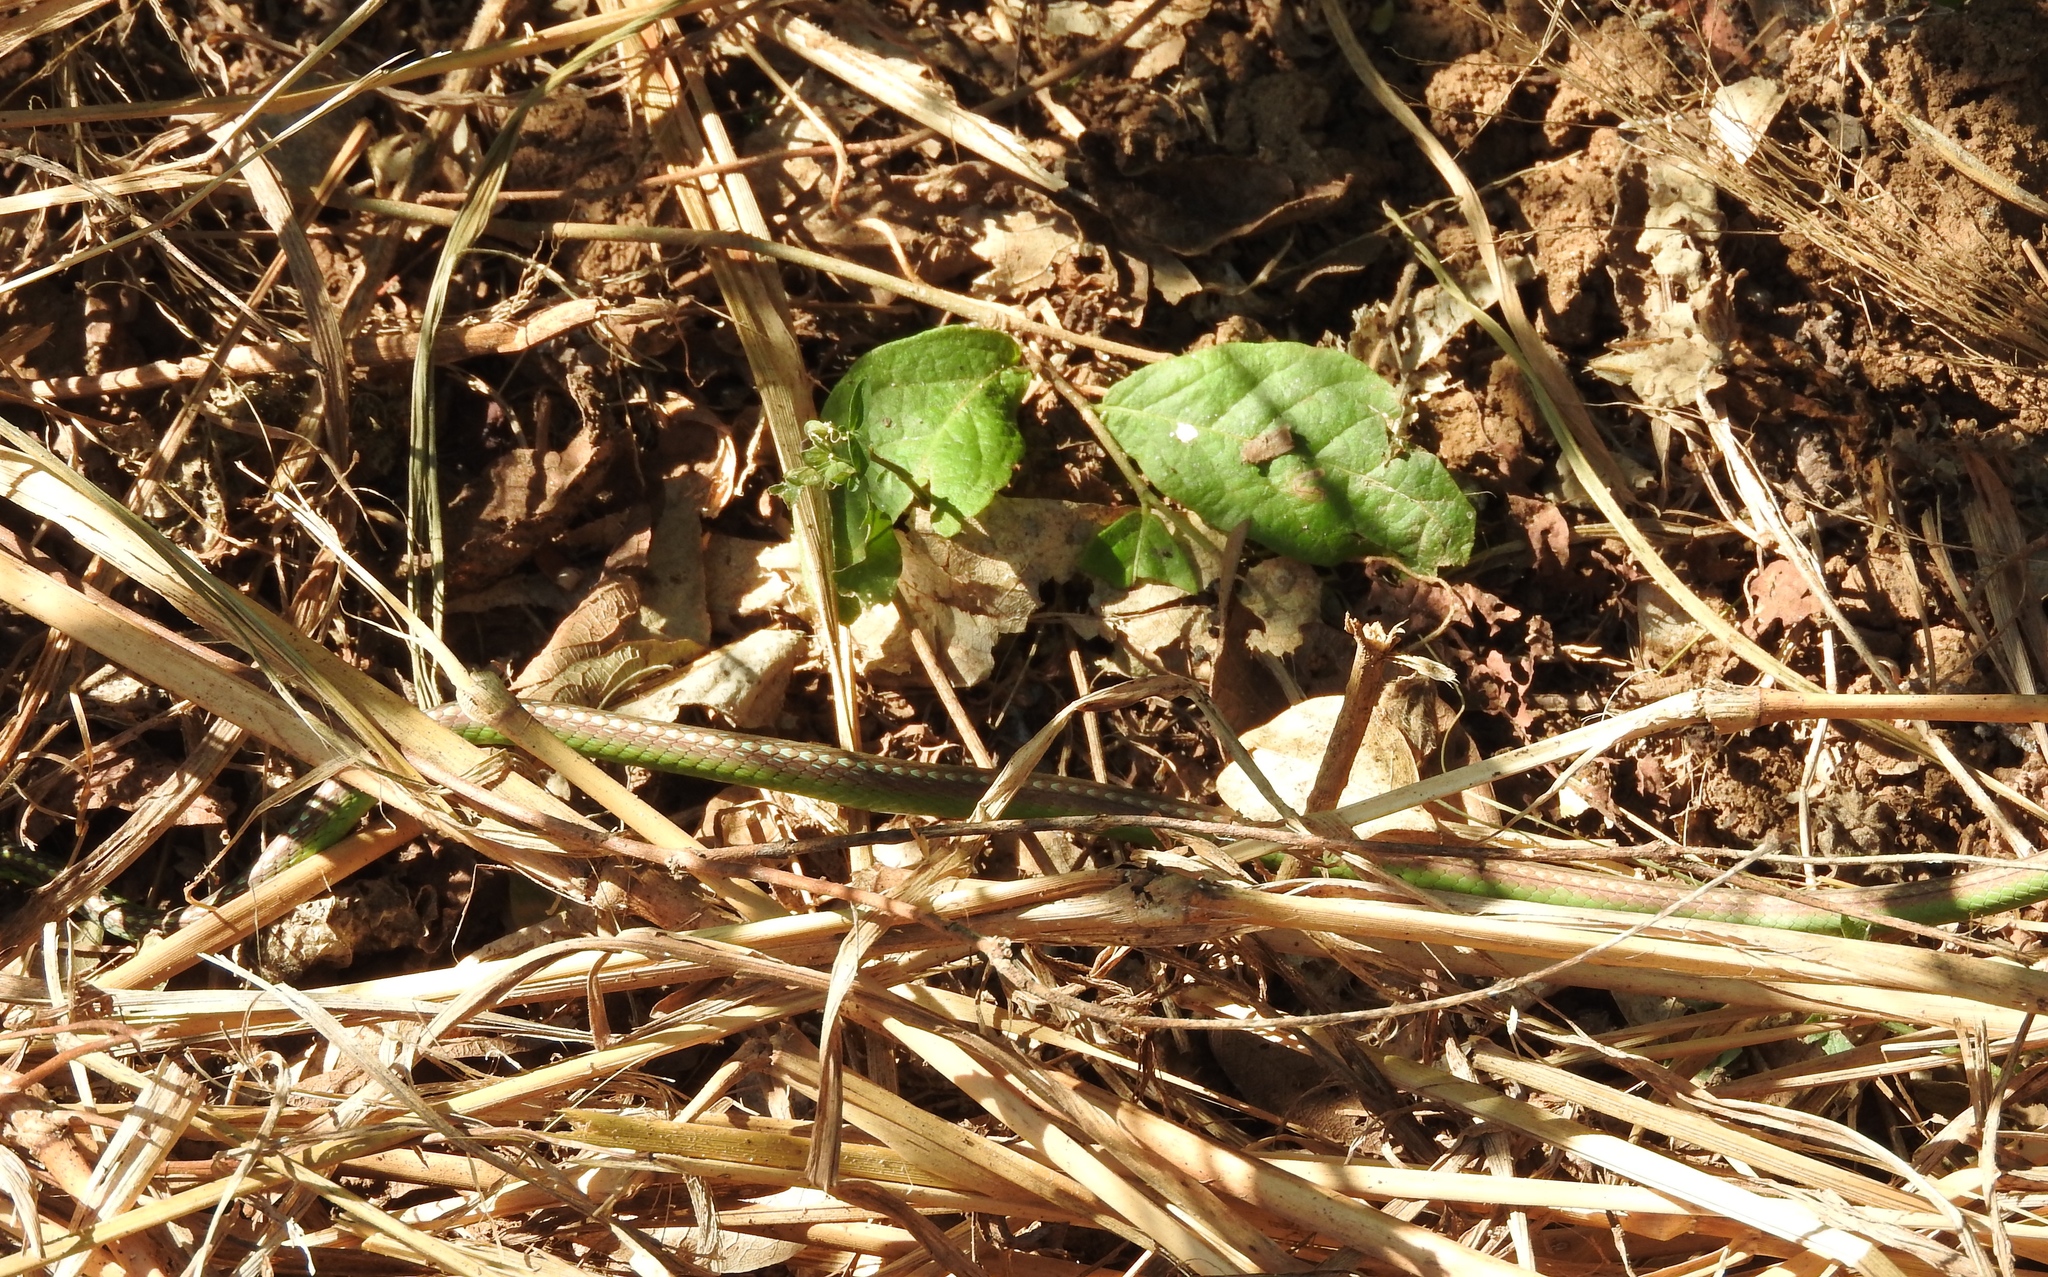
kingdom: Animalia
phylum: Chordata
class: Squamata
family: Colubridae
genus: Leptophis
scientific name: Leptophis diplotropis
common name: Pacific coast parrot snake
